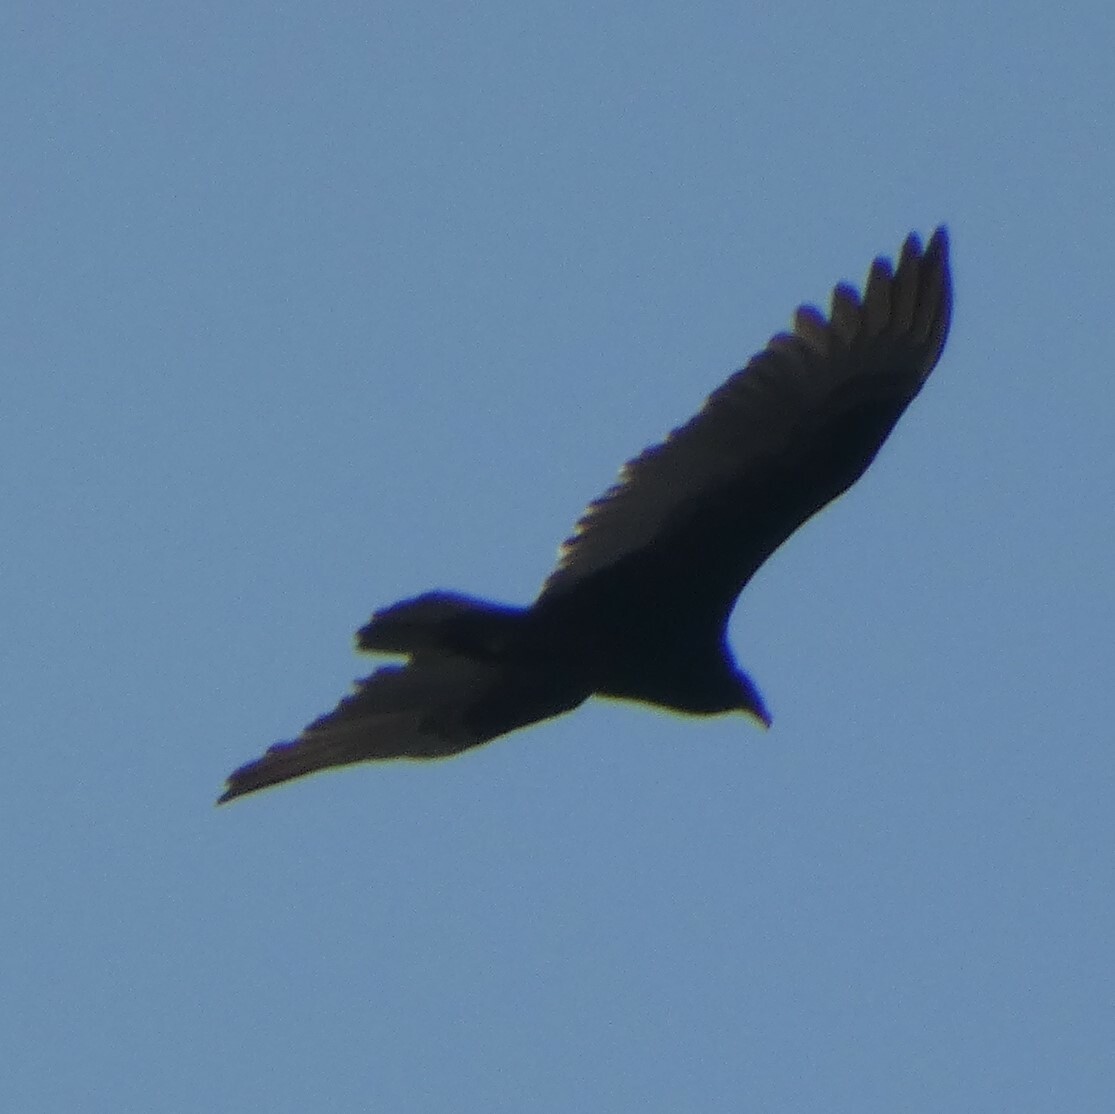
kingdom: Animalia
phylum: Chordata
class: Aves
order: Accipitriformes
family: Cathartidae
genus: Cathartes
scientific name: Cathartes aura
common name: Turkey vulture
